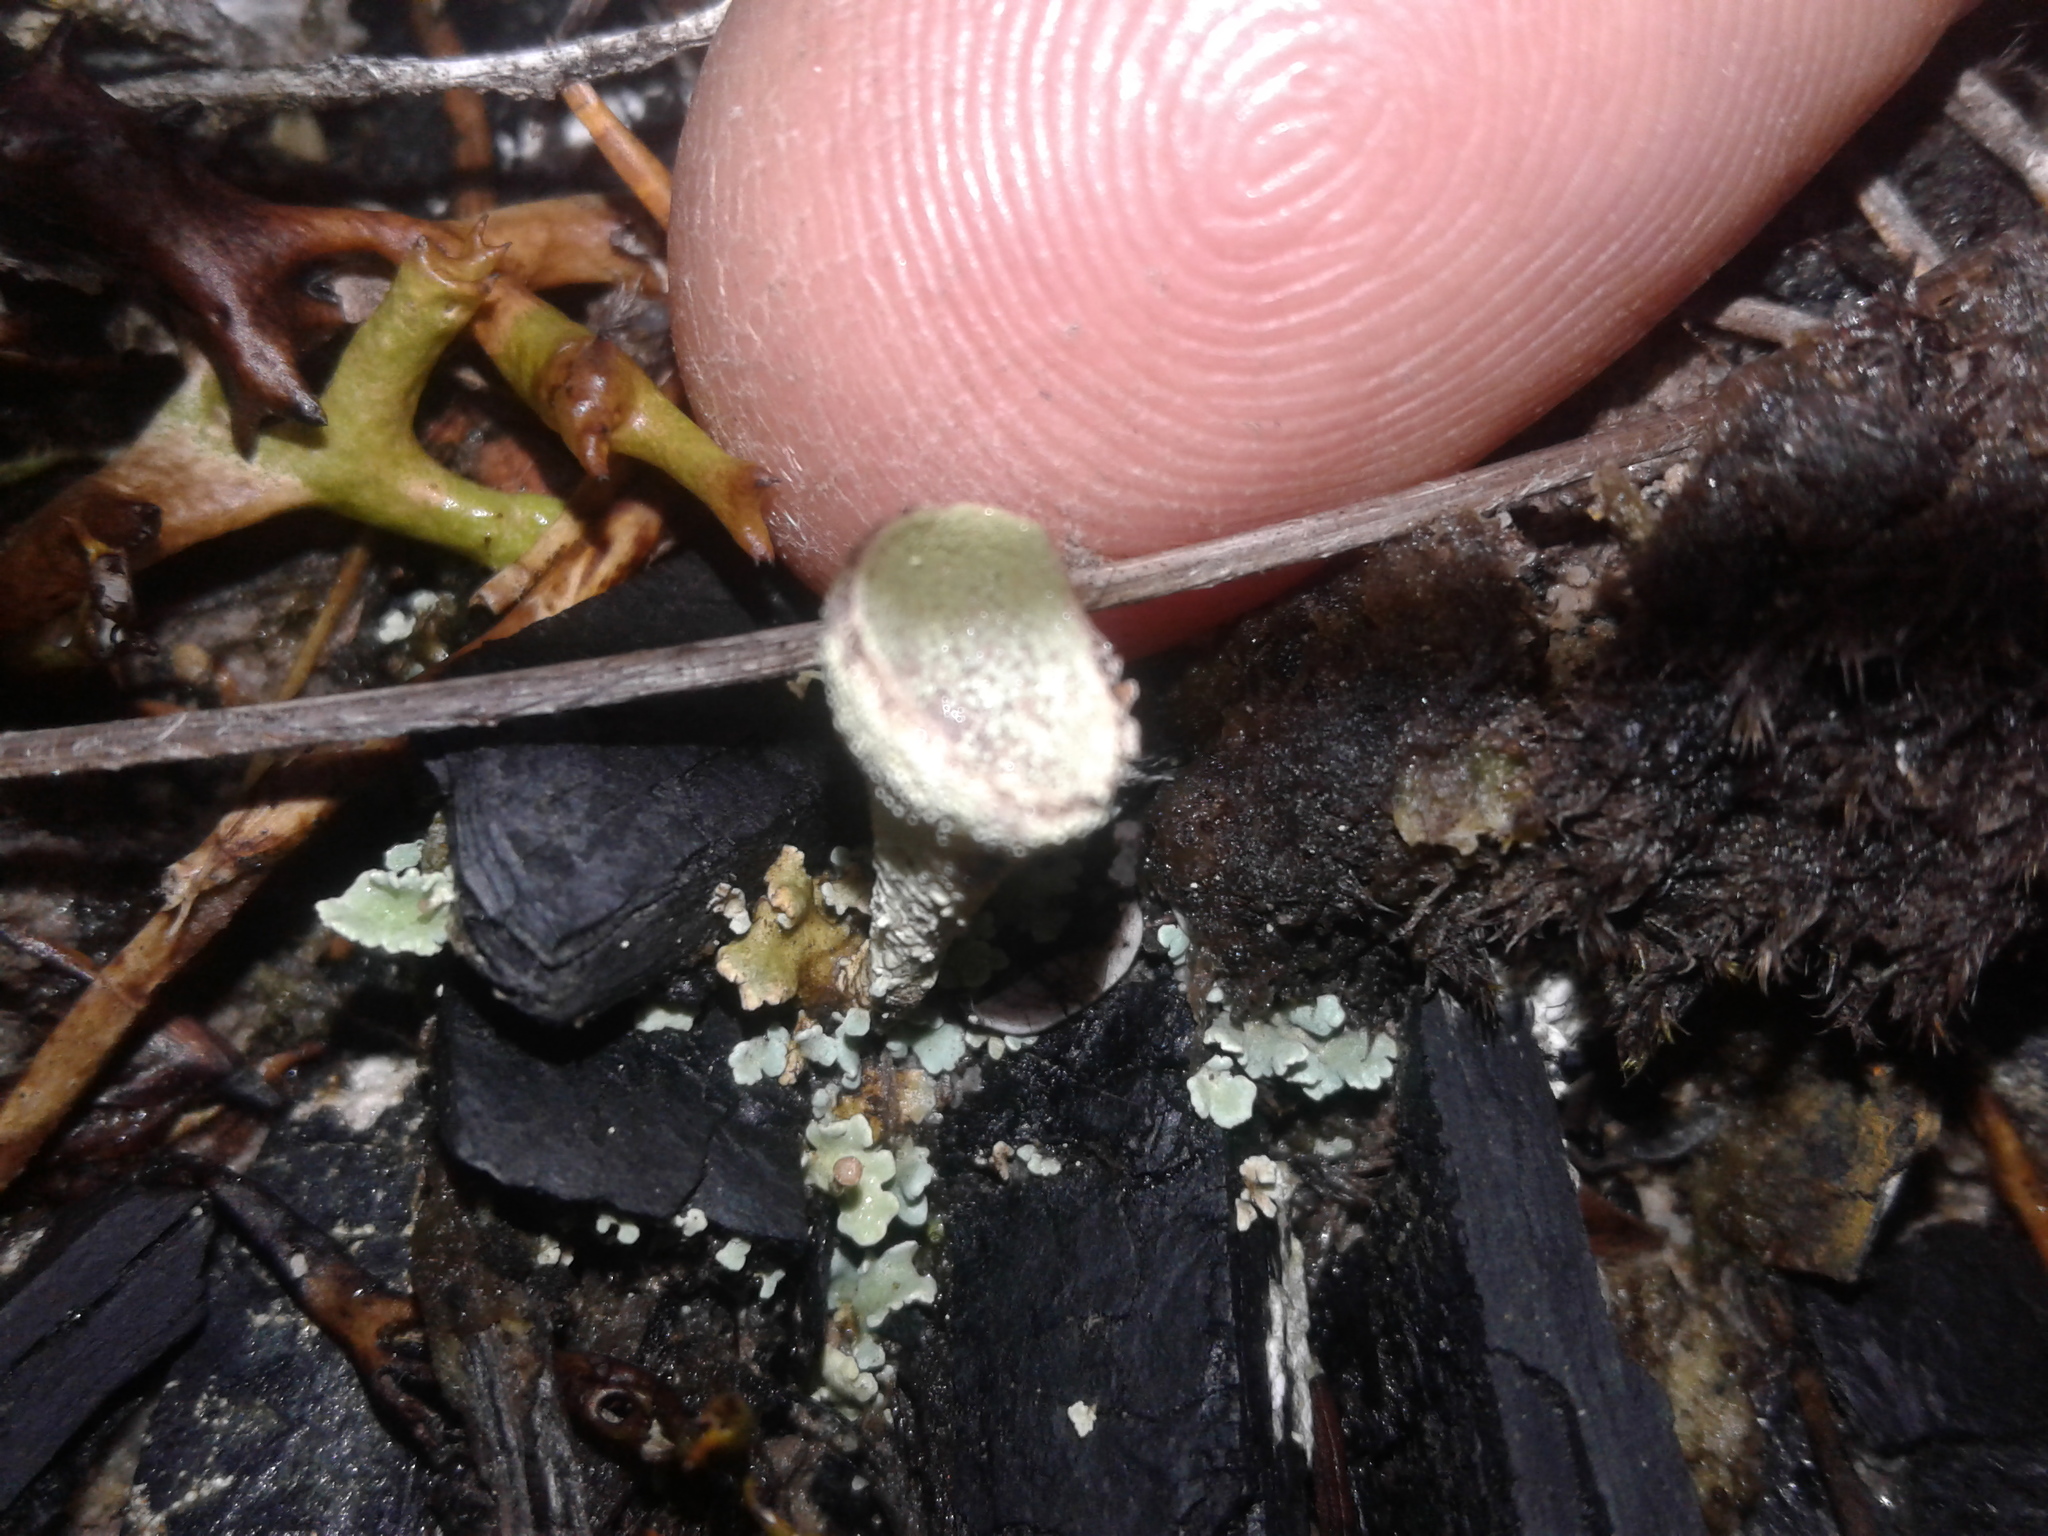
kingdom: Fungi
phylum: Ascomycota
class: Lecanoromycetes
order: Lecanorales
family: Cladoniaceae
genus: Cladonia
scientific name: Cladonia
